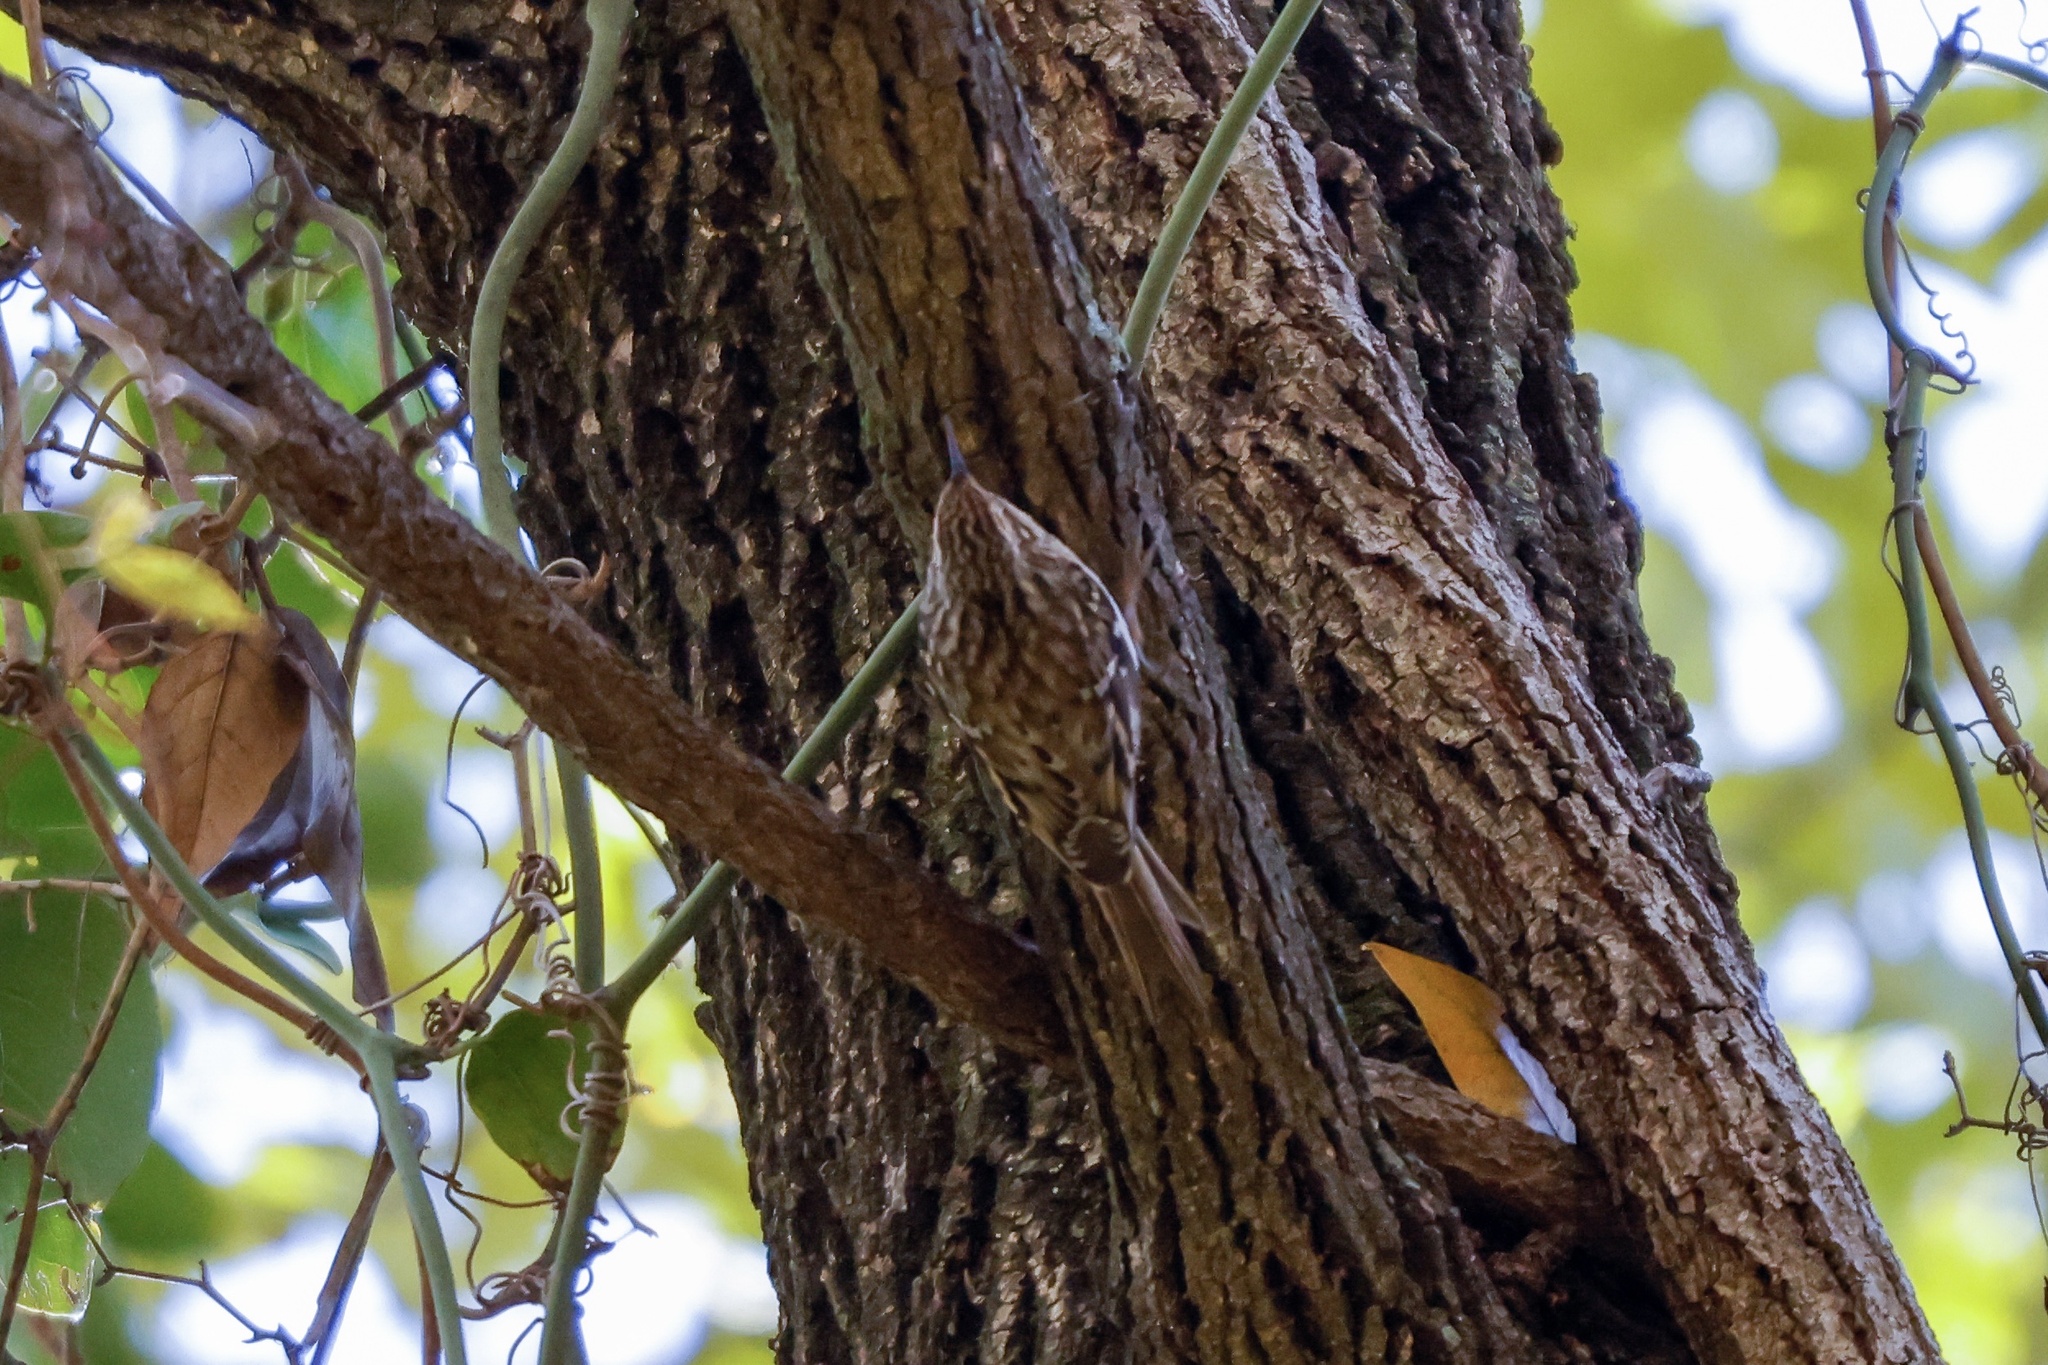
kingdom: Animalia
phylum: Chordata
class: Aves
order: Passeriformes
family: Certhiidae
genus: Certhia
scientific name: Certhia americana
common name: Brown creeper
